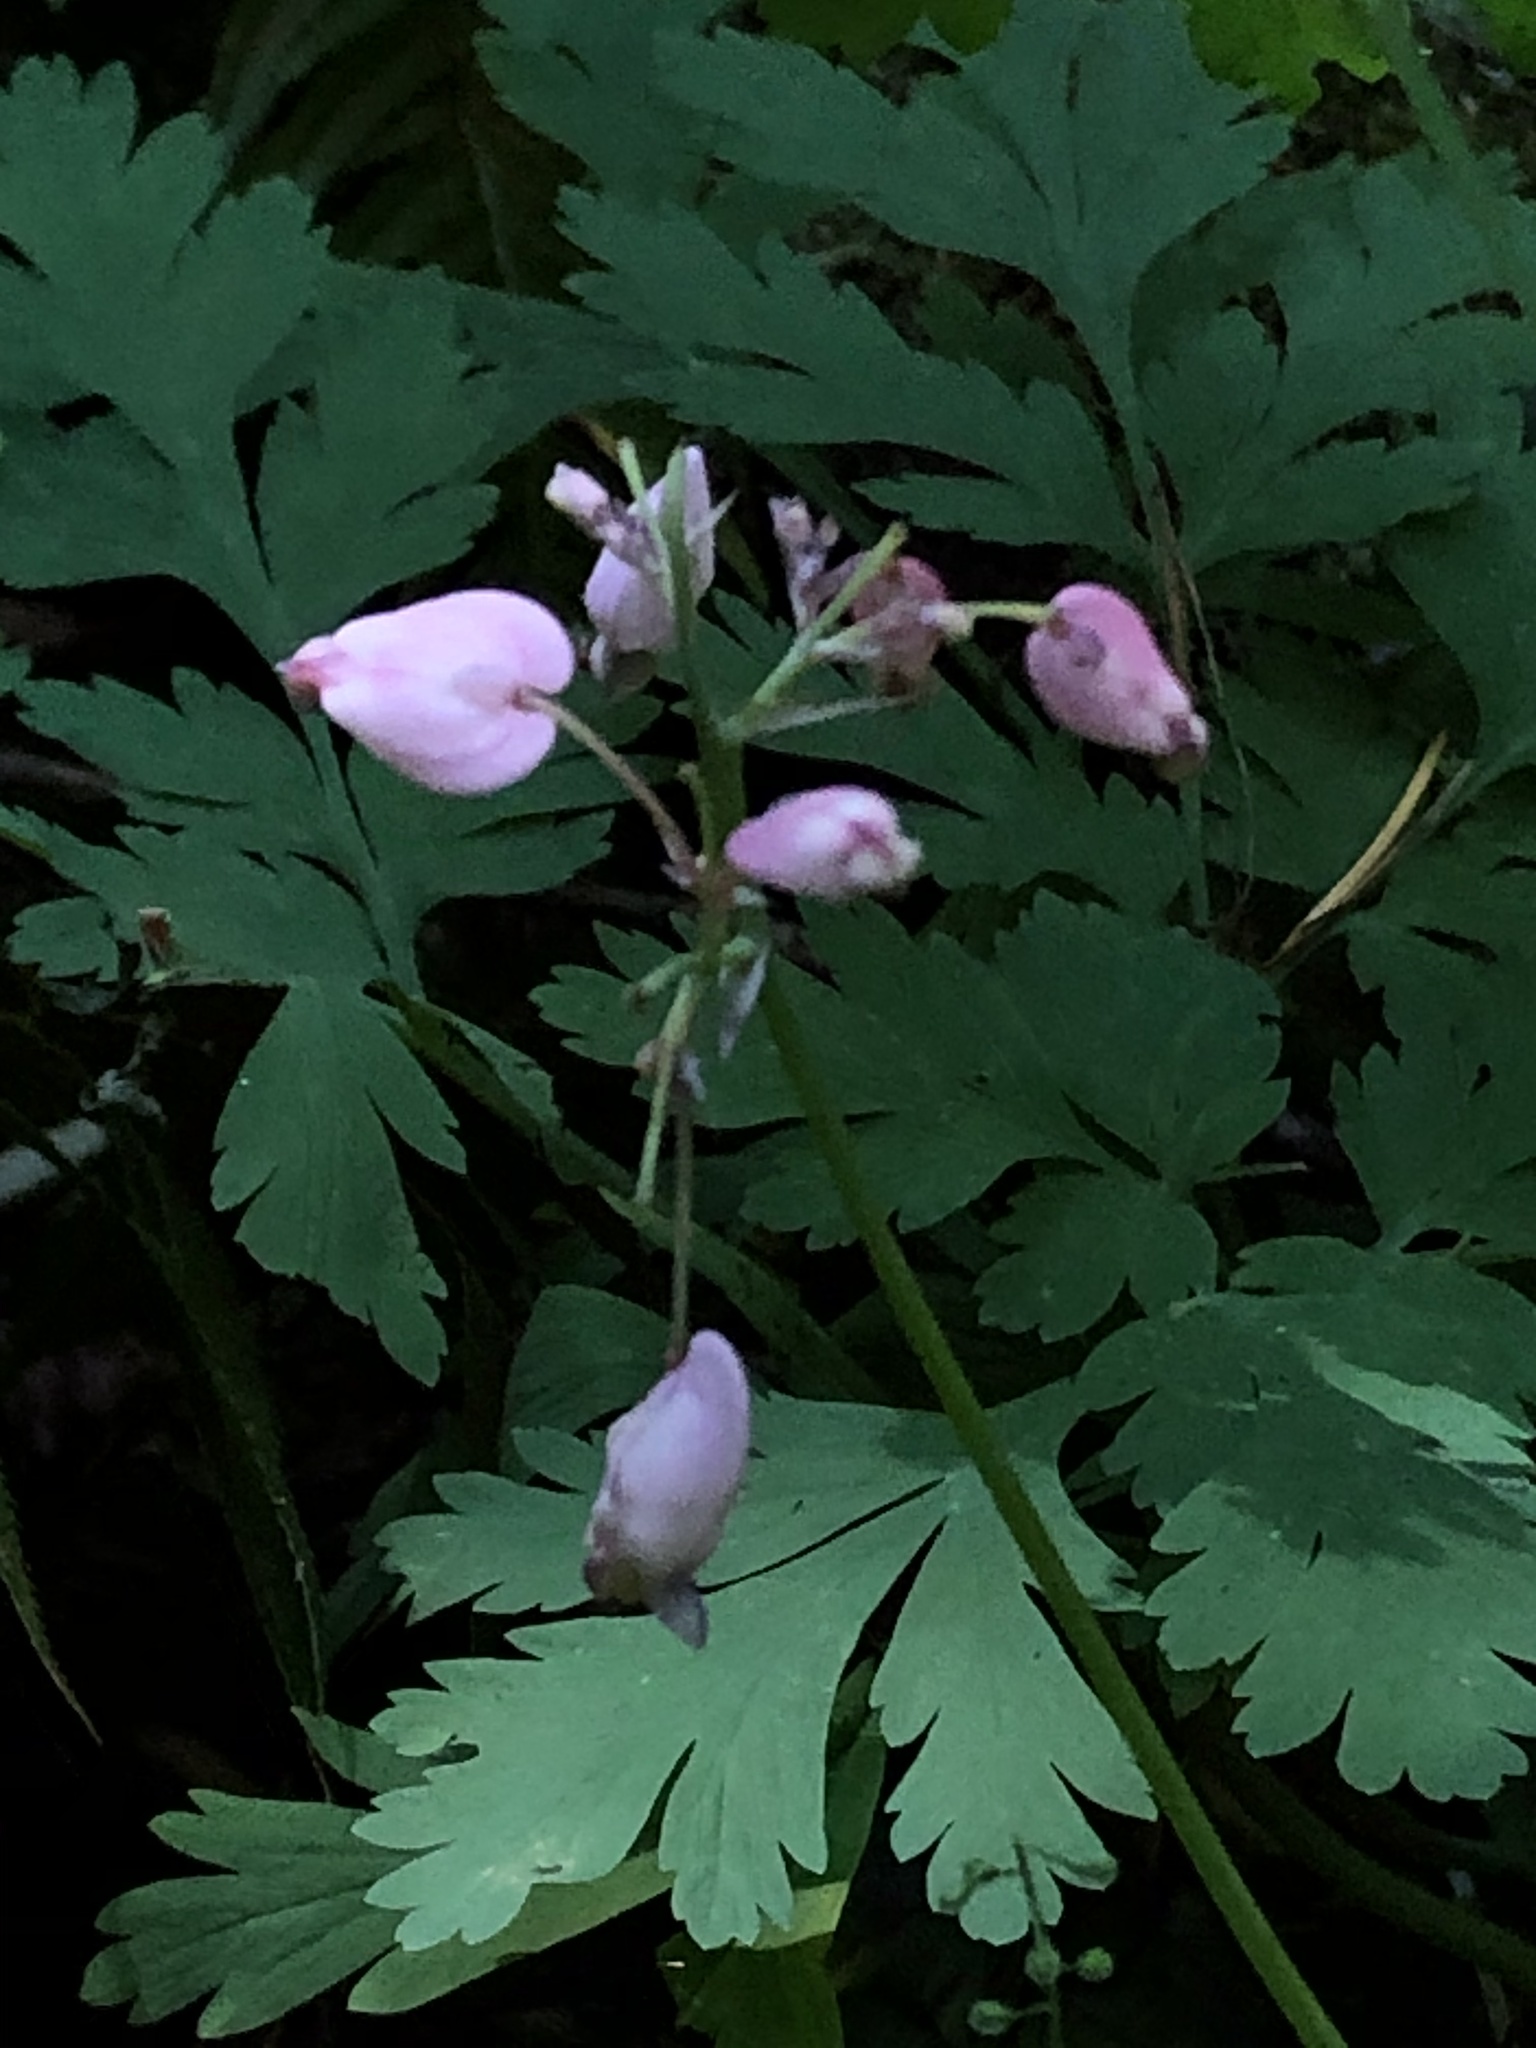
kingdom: Plantae
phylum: Tracheophyta
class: Magnoliopsida
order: Ranunculales
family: Papaveraceae
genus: Dicentra
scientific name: Dicentra formosa
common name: Bleeding-heart
